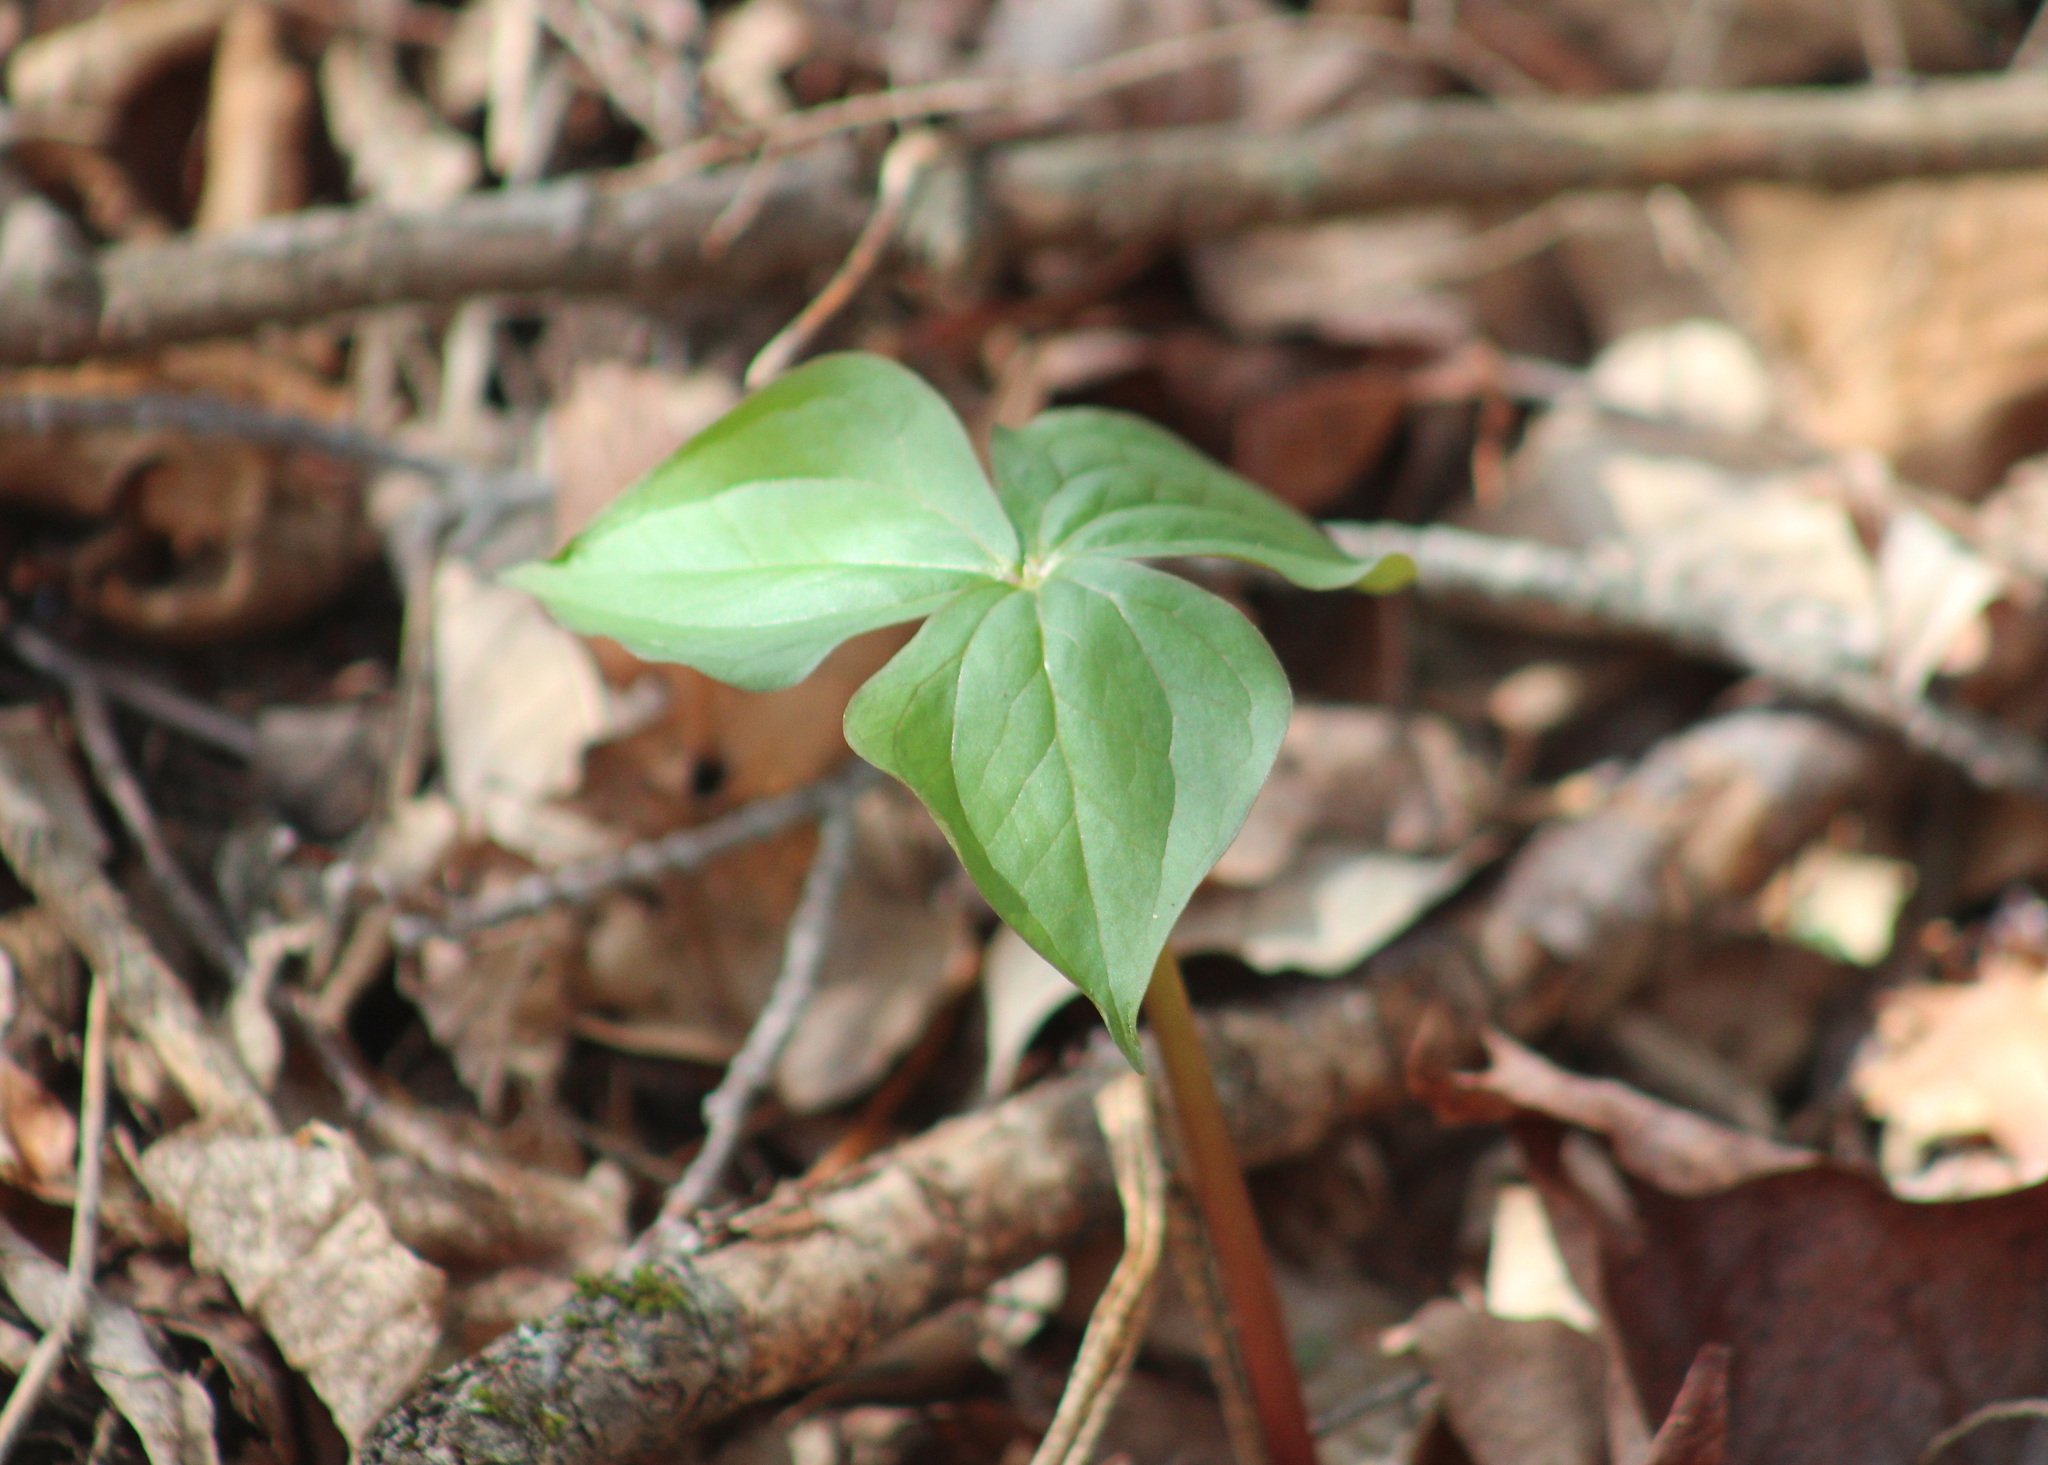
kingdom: Plantae
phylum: Tracheophyta
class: Liliopsida
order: Liliales
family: Melanthiaceae
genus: Trillium
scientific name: Trillium erectum
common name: Purple trillium
